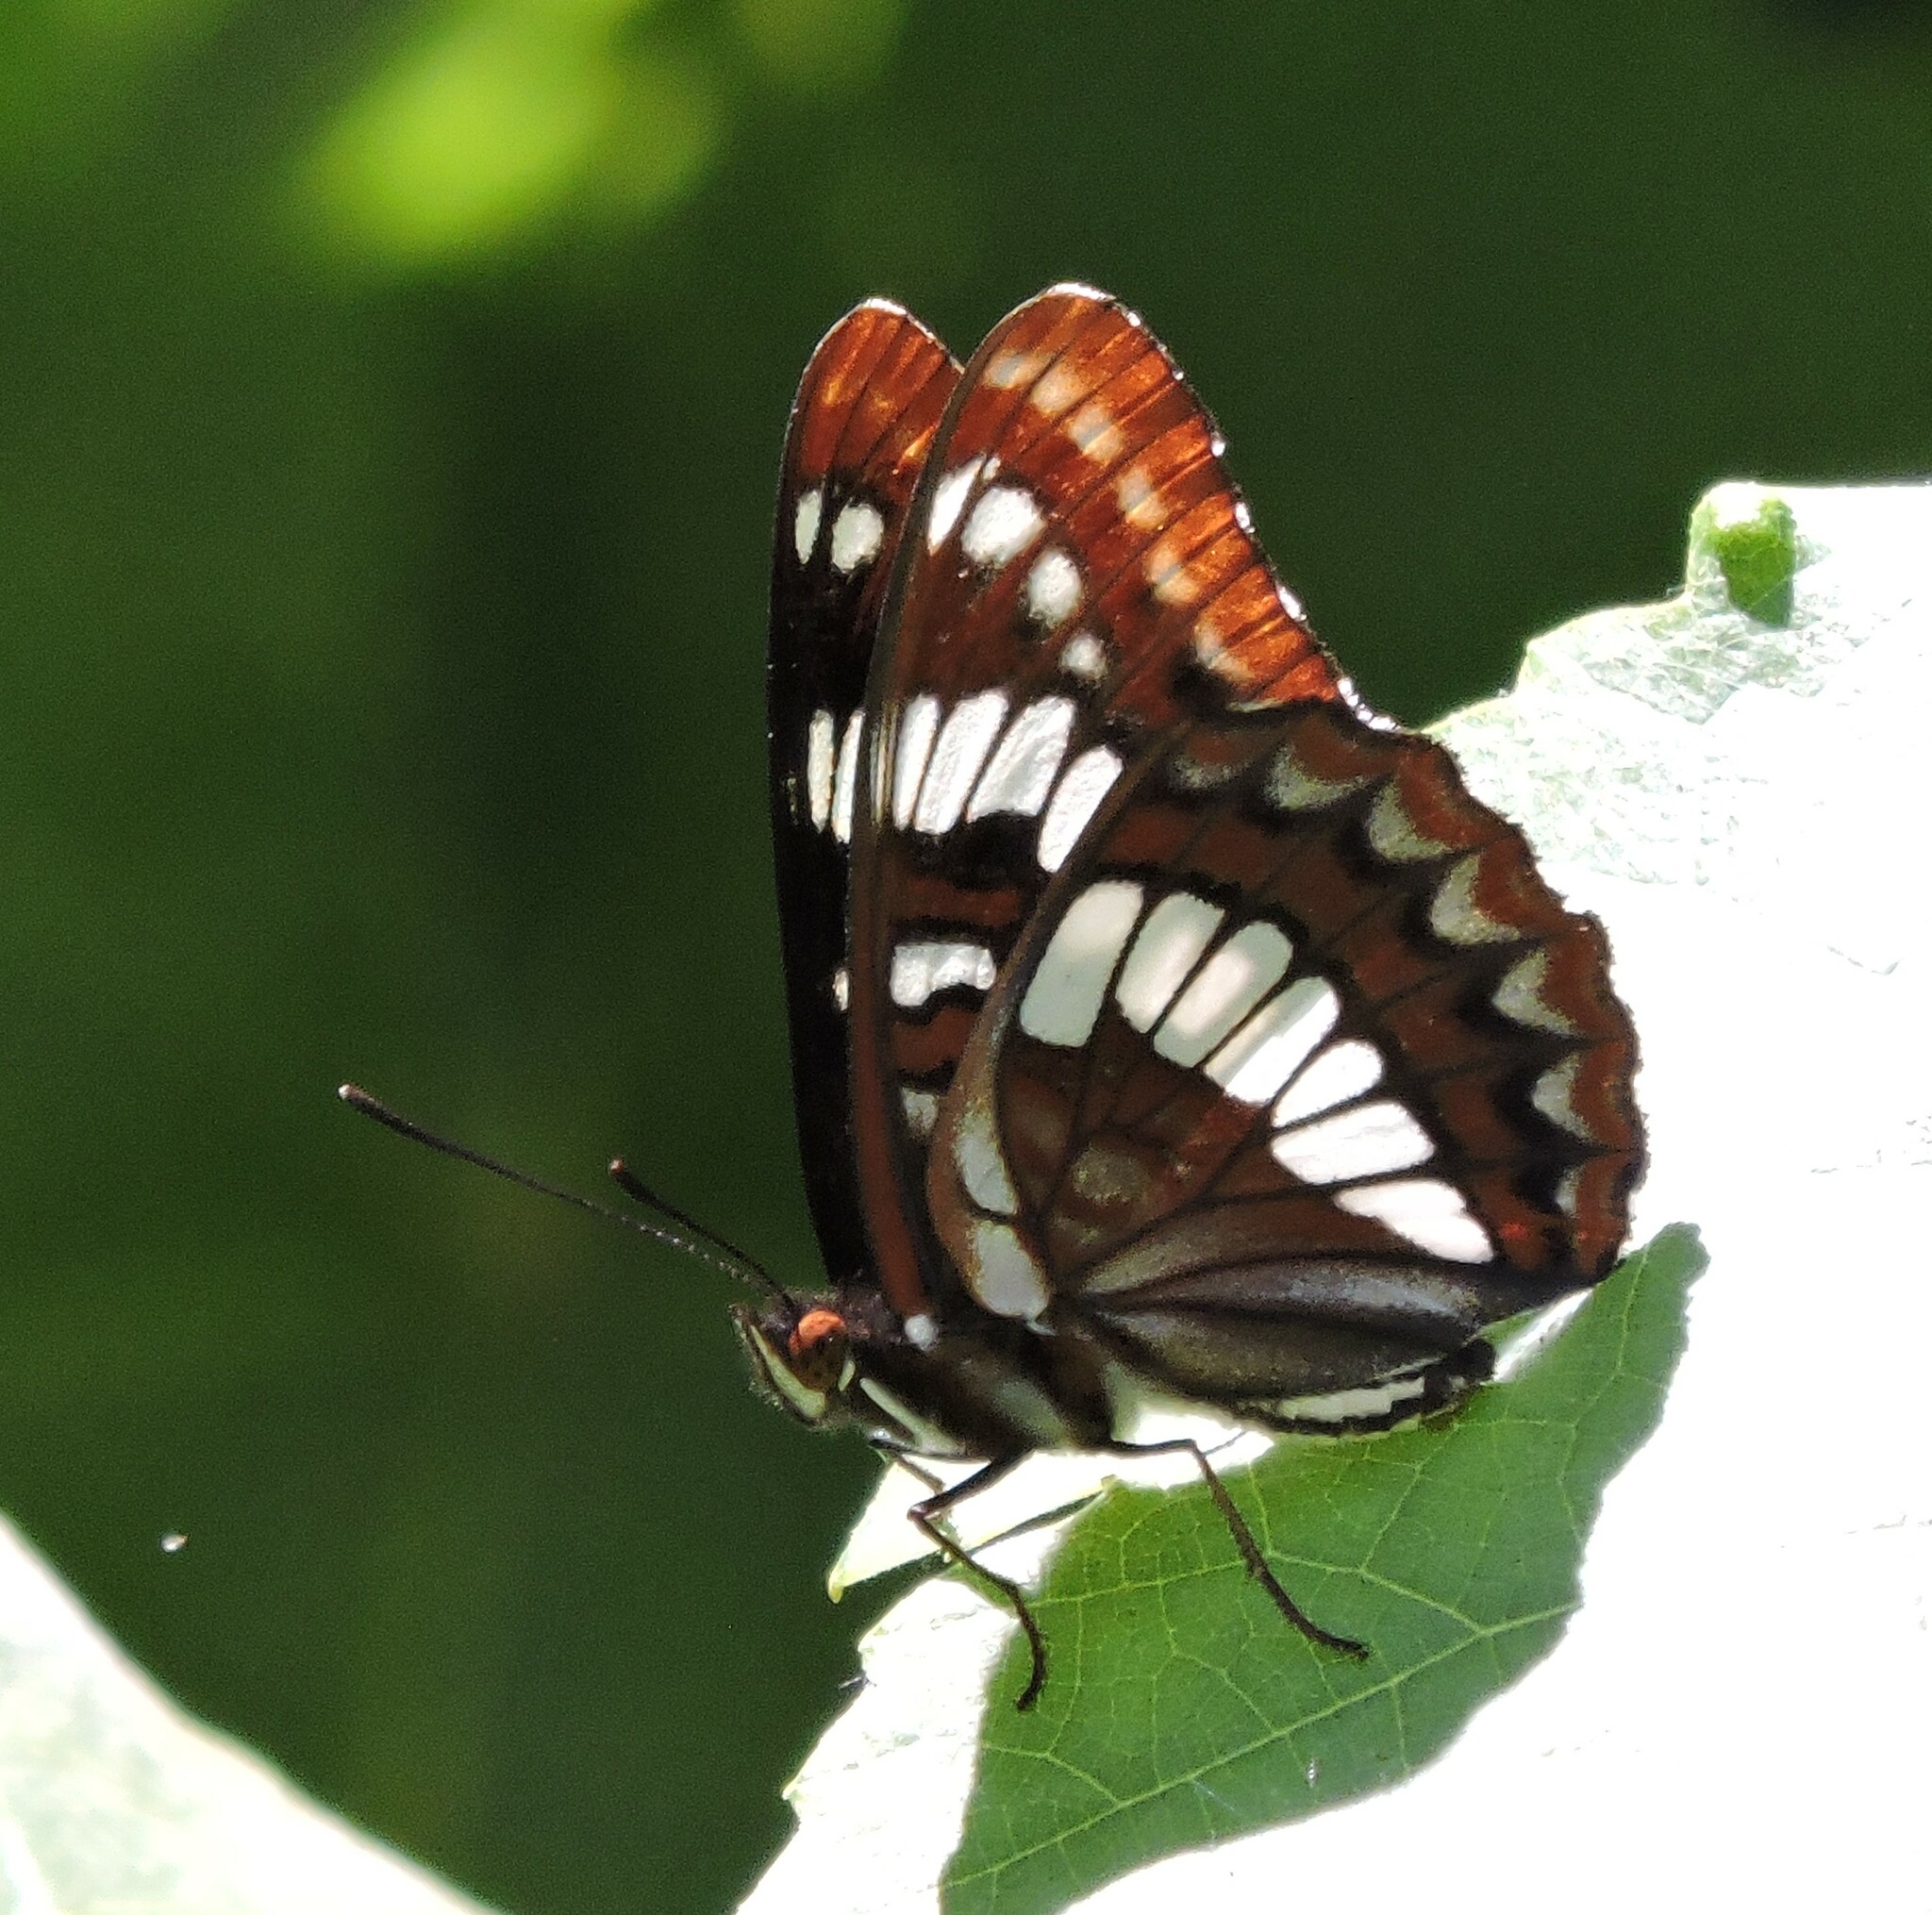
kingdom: Animalia
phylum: Arthropoda
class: Insecta
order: Lepidoptera
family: Nymphalidae
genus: Limenitis
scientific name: Limenitis lorquini
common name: Lorquin's admiral
